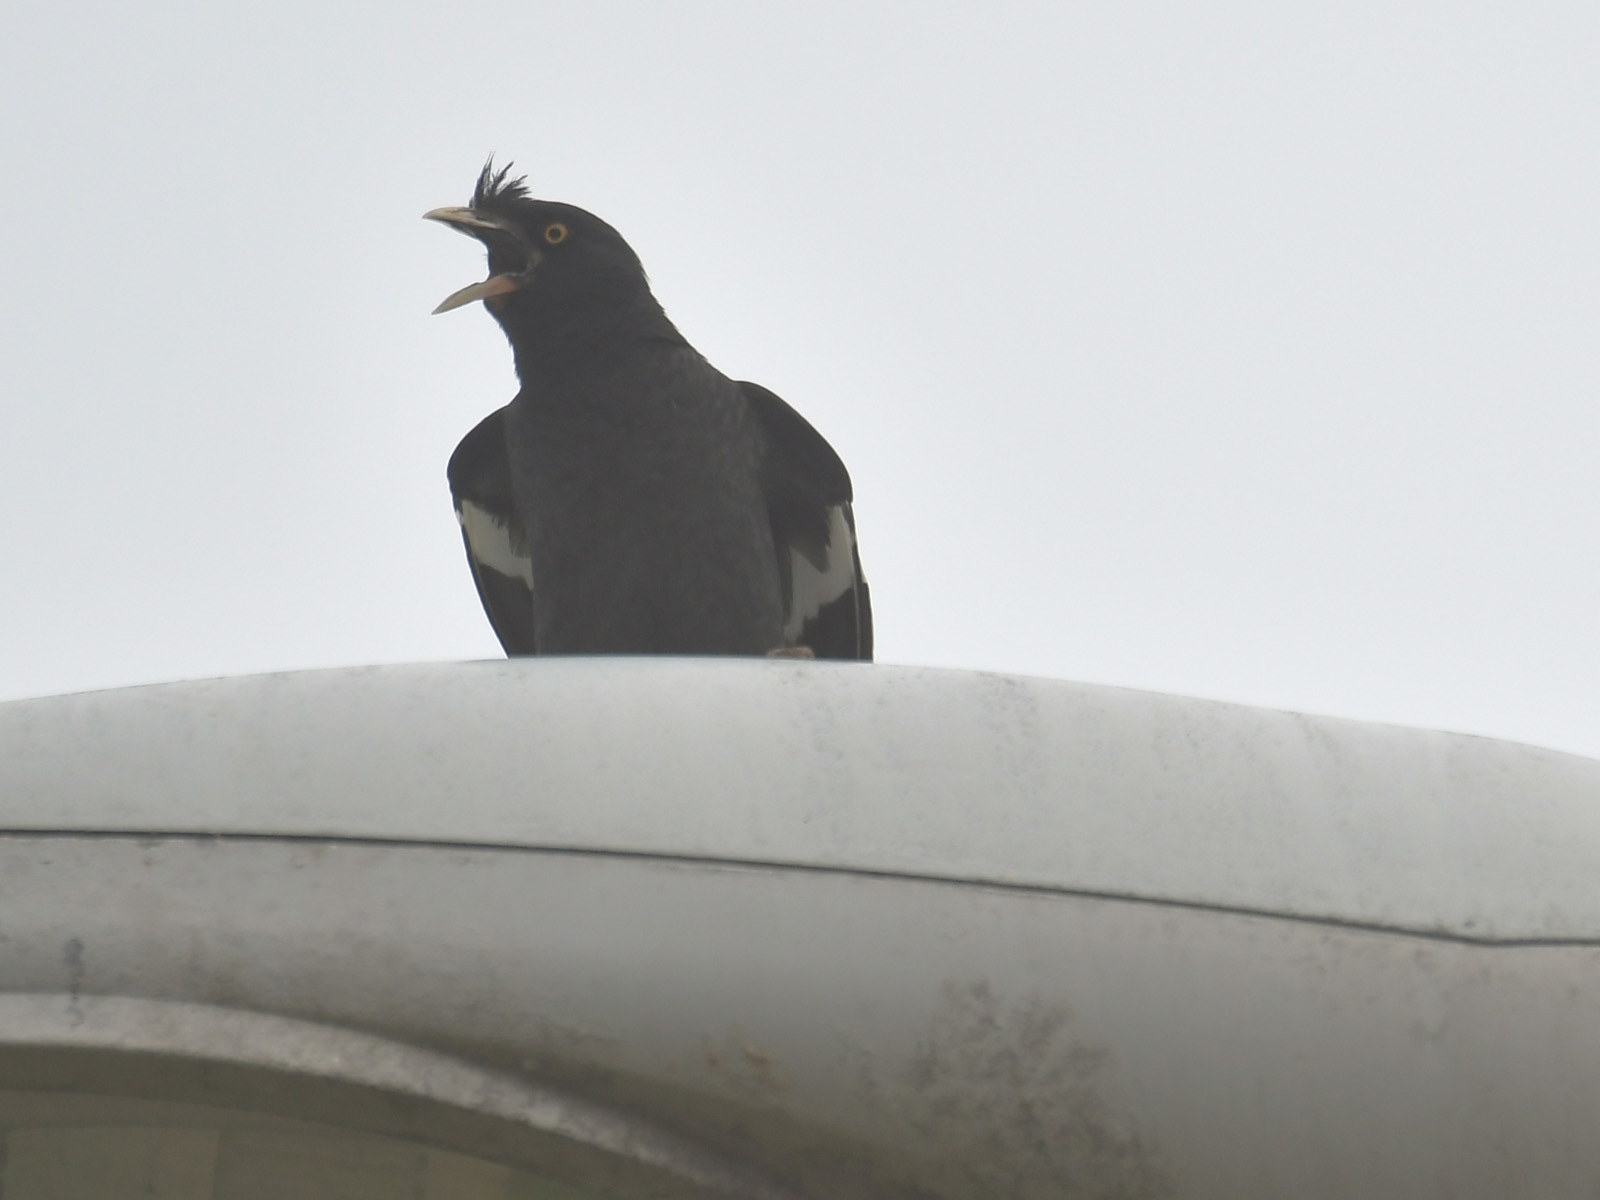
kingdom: Animalia
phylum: Chordata
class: Aves
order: Passeriformes
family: Sturnidae
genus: Acridotheres
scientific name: Acridotheres cristatellus
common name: Crested myna
